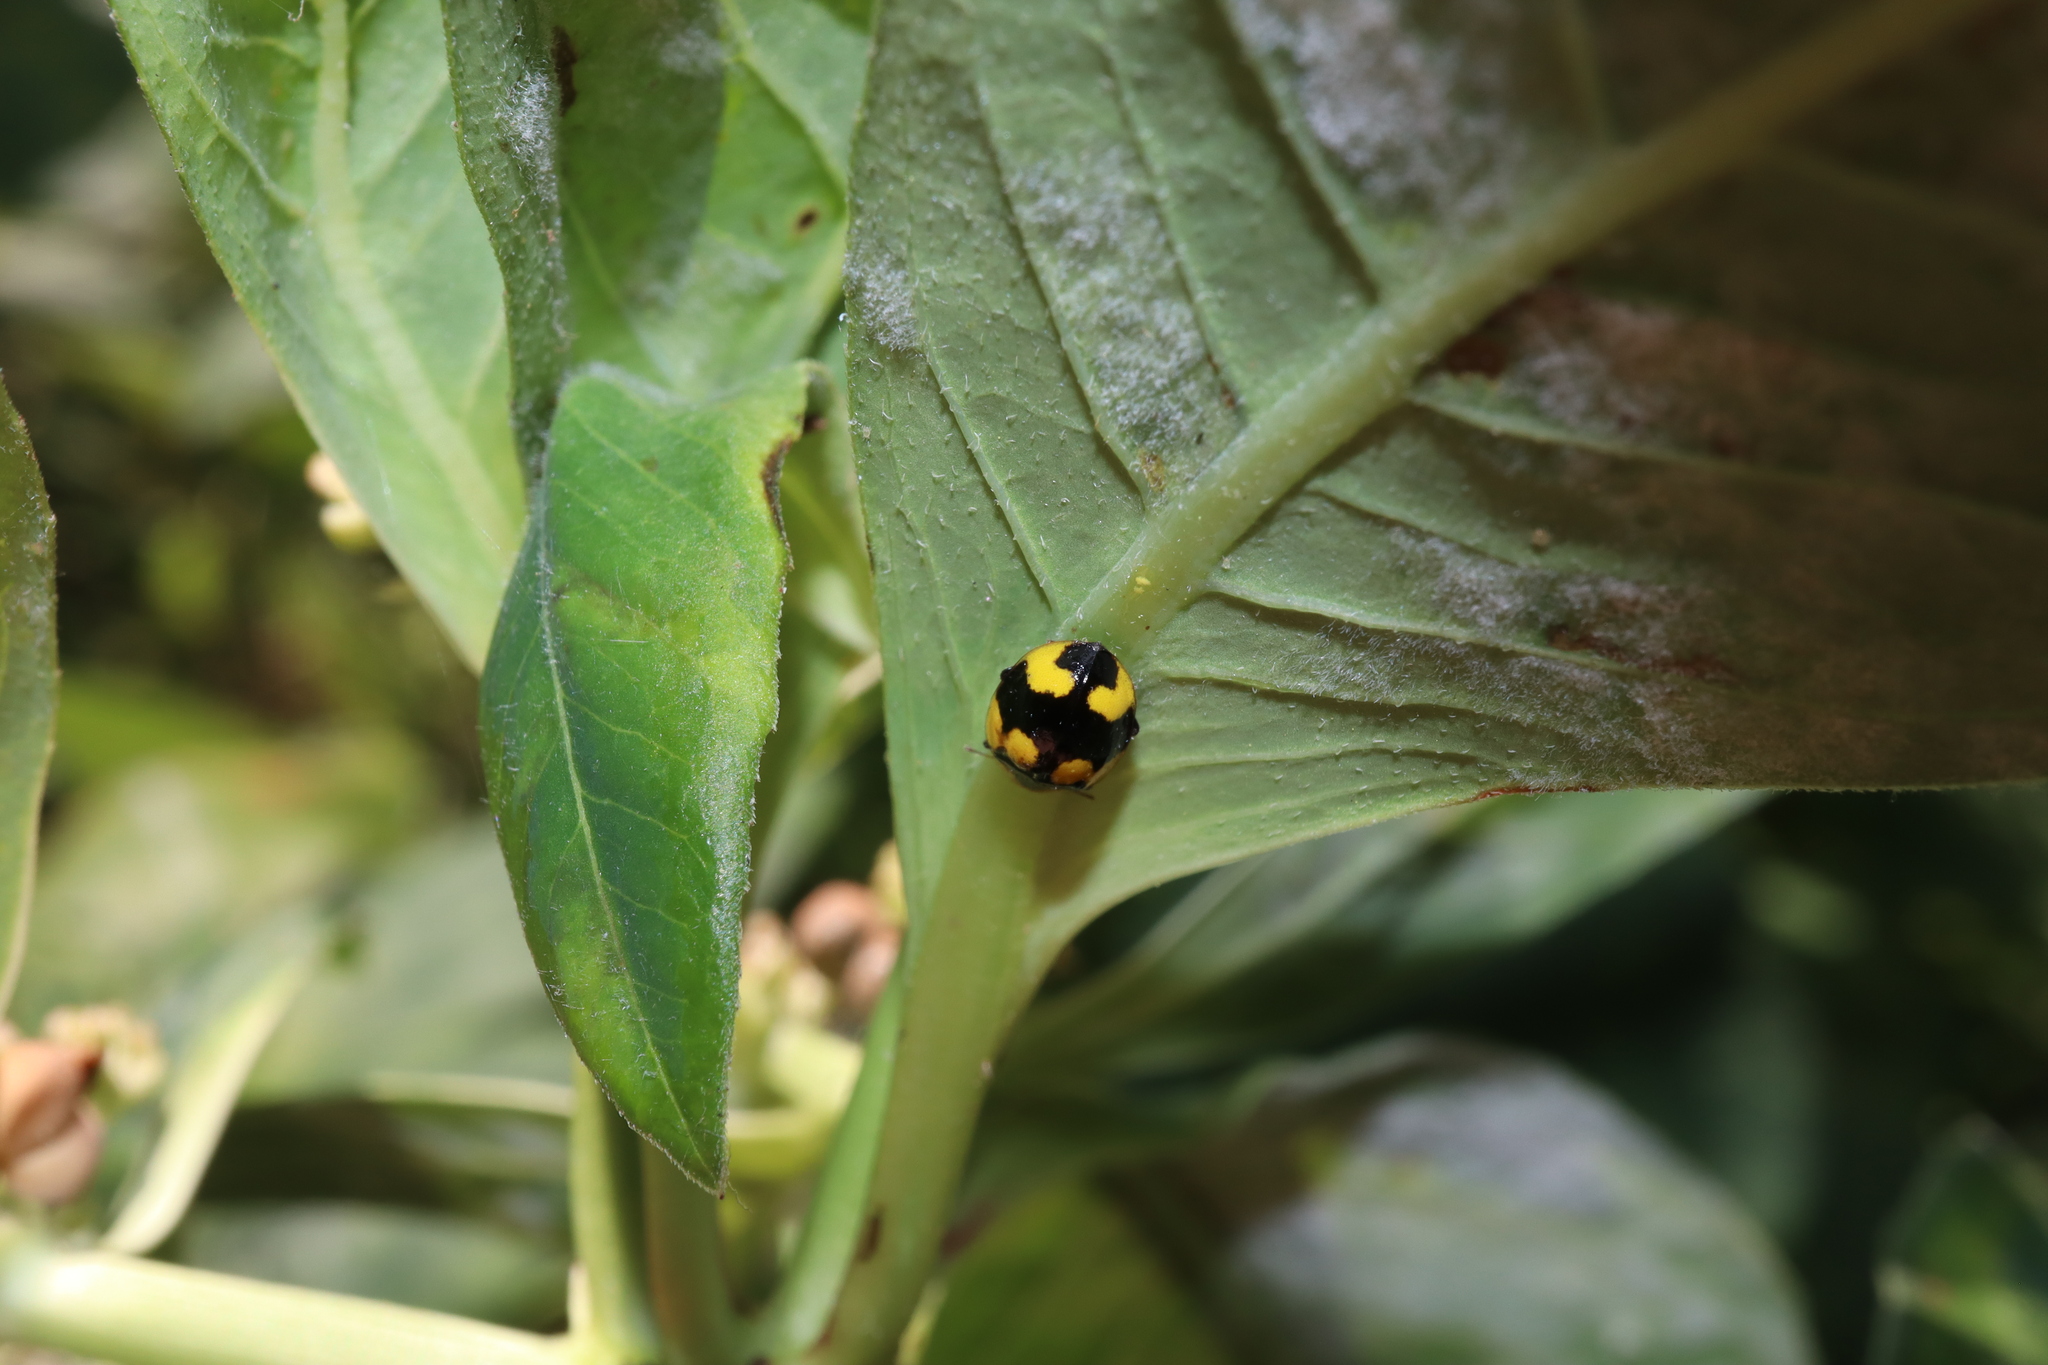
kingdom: Animalia
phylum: Arthropoda
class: Insecta
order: Coleoptera
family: Coccinellidae
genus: Illeis
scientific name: Illeis galbula
